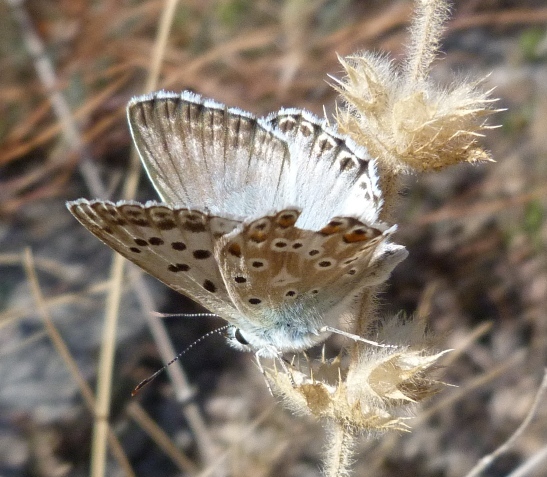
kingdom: Animalia
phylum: Arthropoda
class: Insecta
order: Lepidoptera
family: Lycaenidae
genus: Lysandra
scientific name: Lysandra hispana
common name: Provence chalkhill blue
